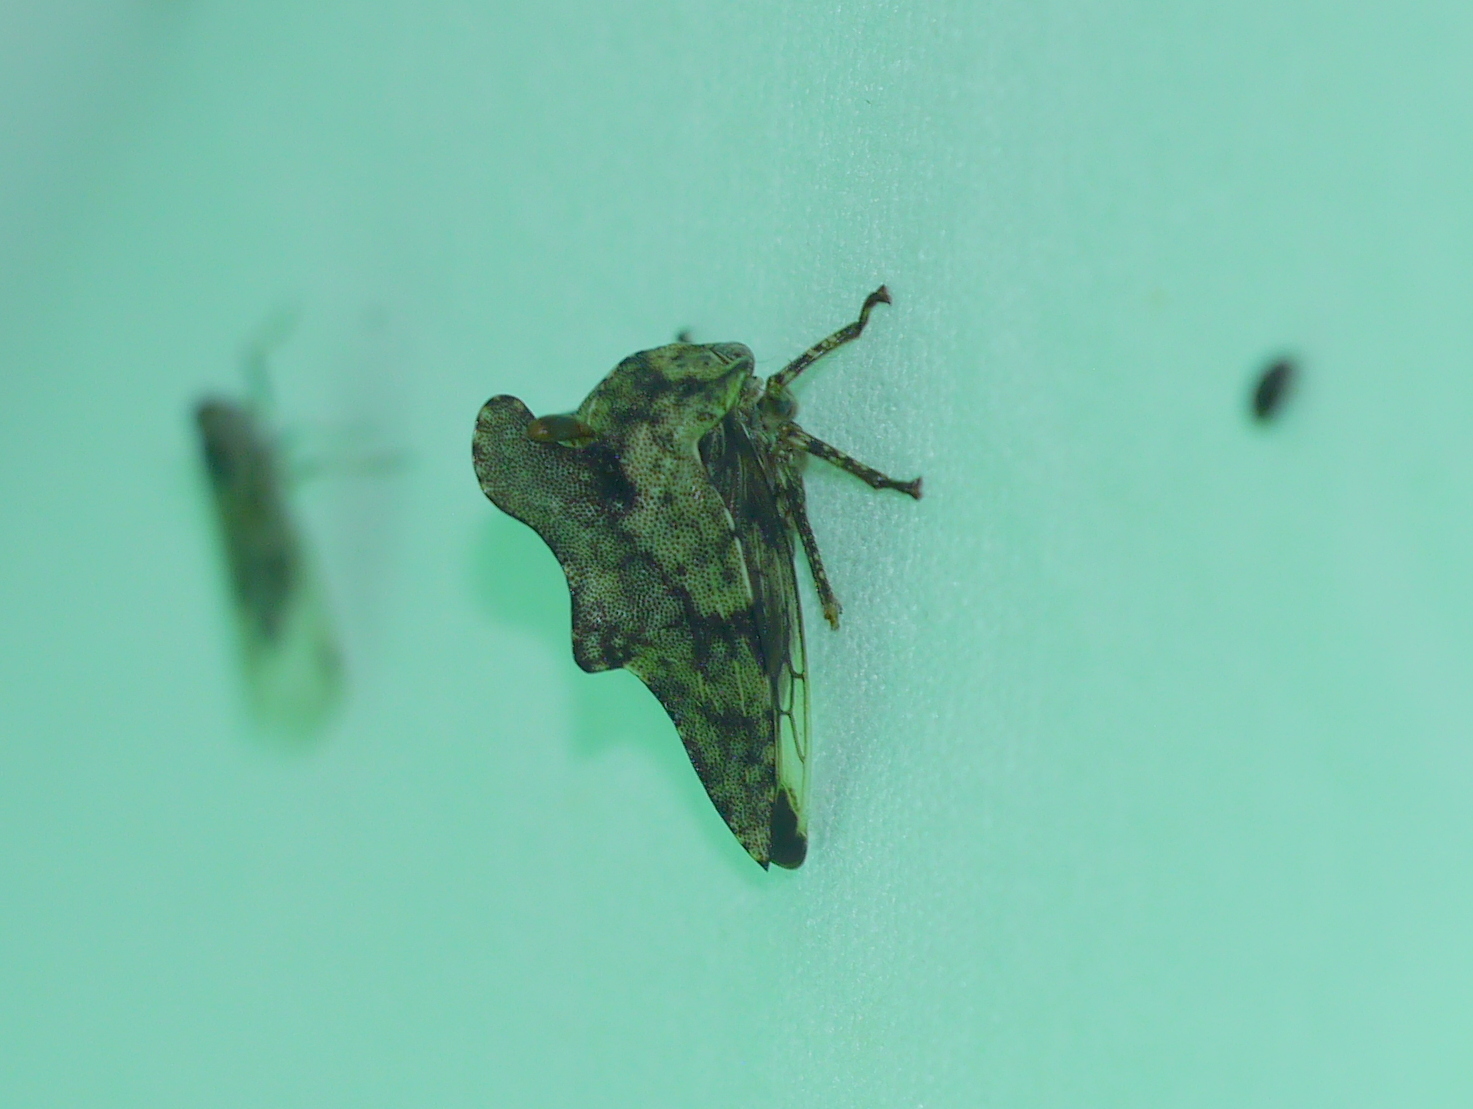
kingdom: Animalia
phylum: Arthropoda
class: Insecta
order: Hemiptera
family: Membracidae
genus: Heliria
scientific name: Heliria cristata
